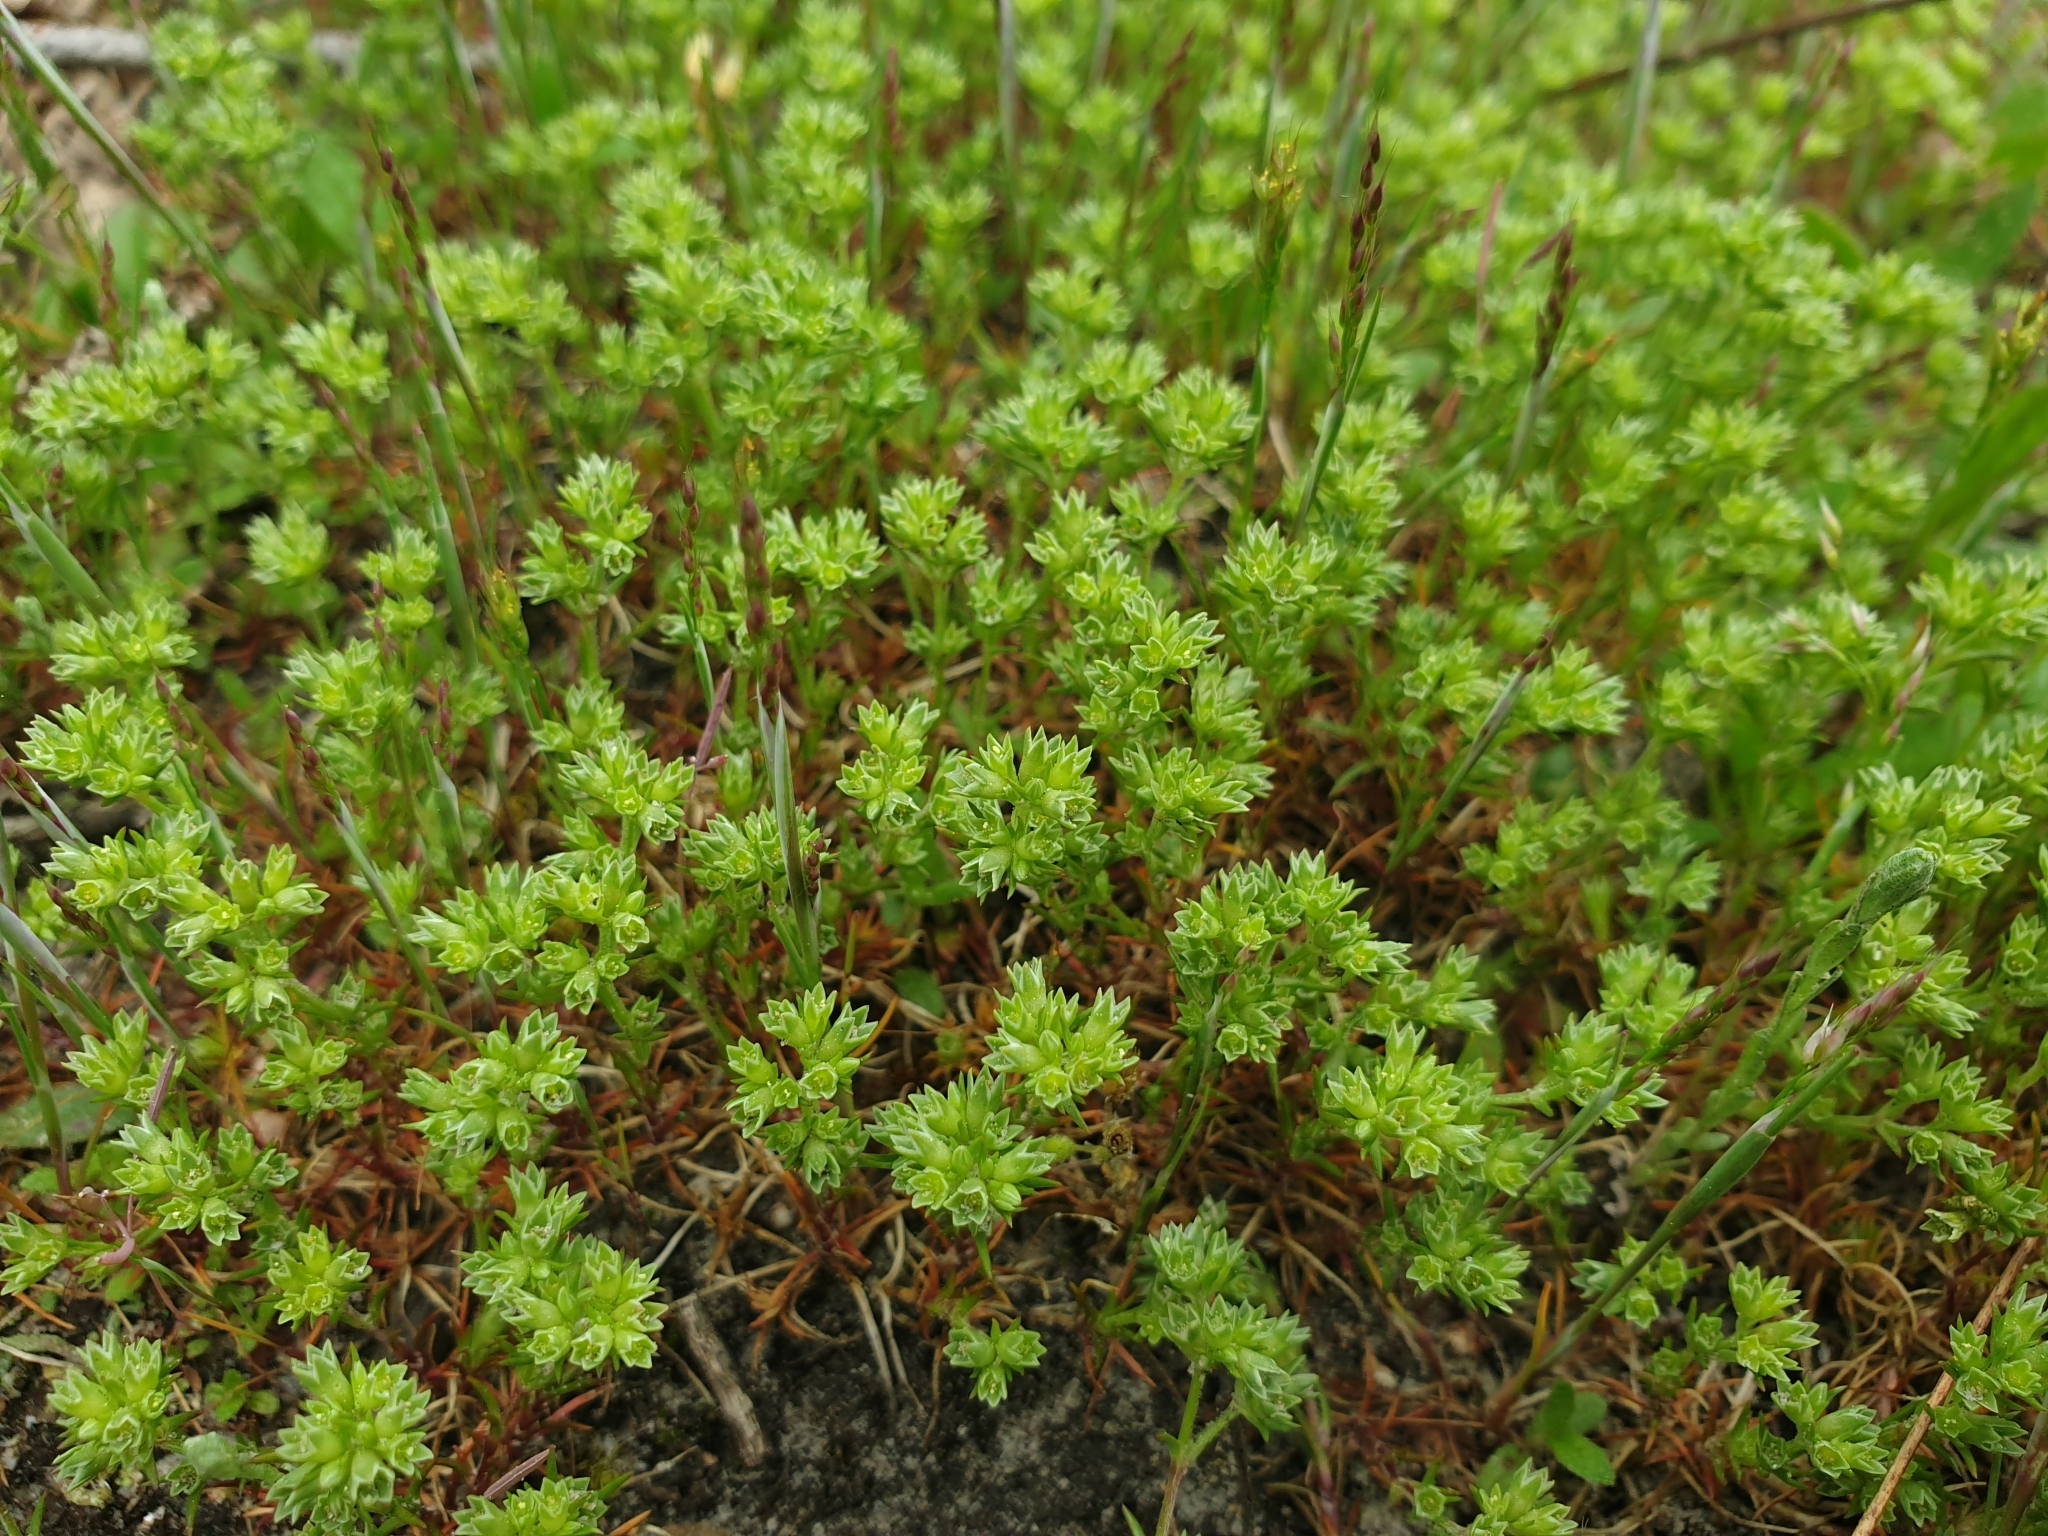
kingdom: Plantae
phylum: Tracheophyta
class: Magnoliopsida
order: Caryophyllales
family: Caryophyllaceae
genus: Scleranthus
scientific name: Scleranthus annuus
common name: Annual knawel
